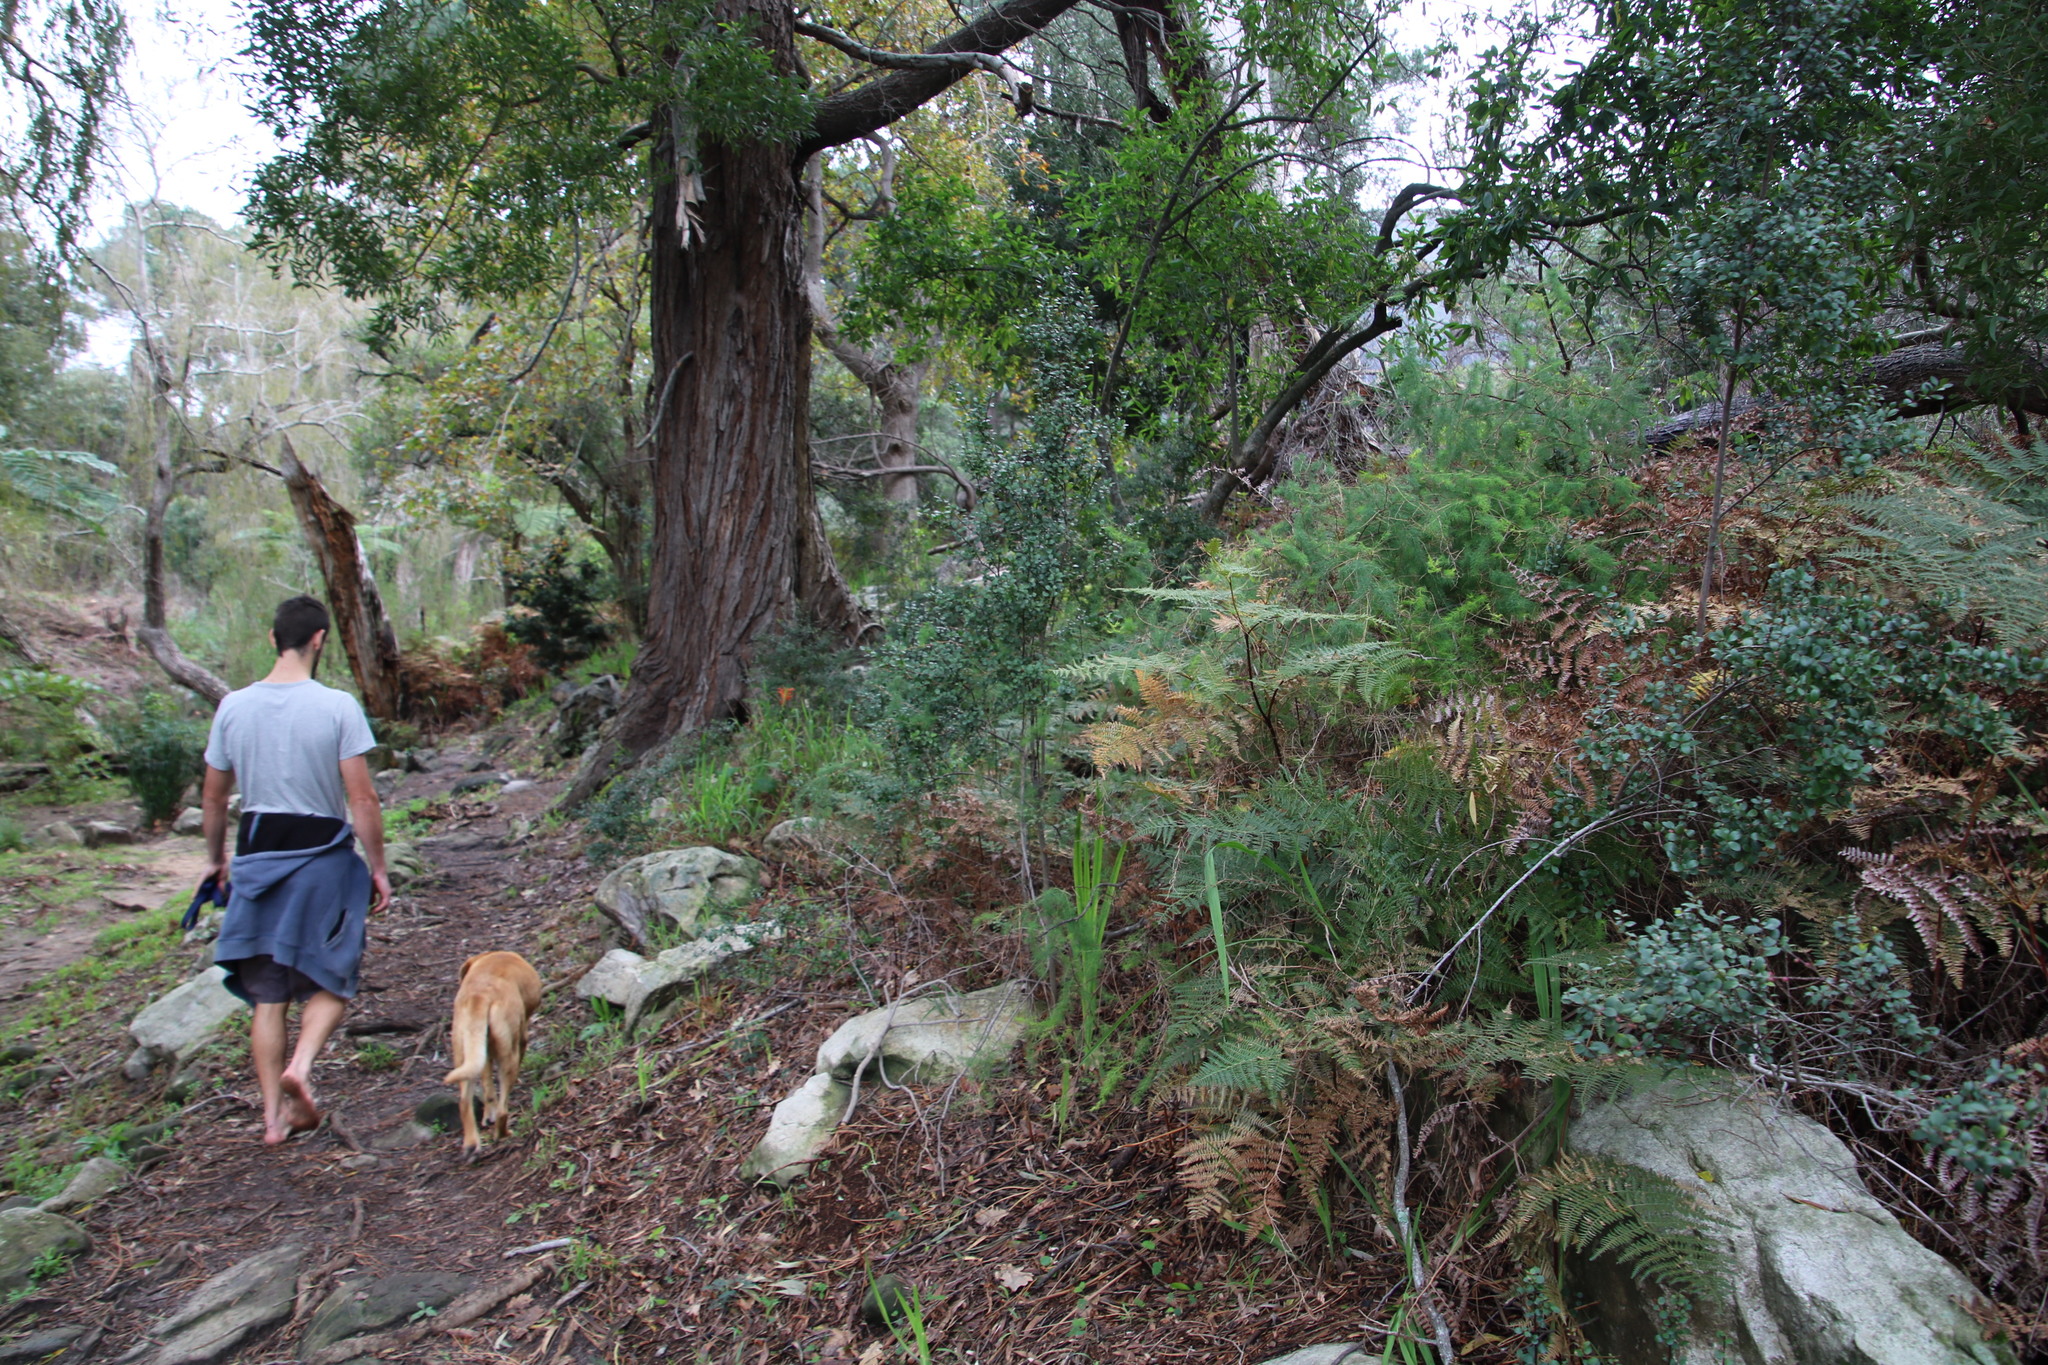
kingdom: Plantae
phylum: Tracheophyta
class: Magnoliopsida
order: Ericales
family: Primulaceae
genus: Myrsine
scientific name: Myrsine africana
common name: African-boxwood
